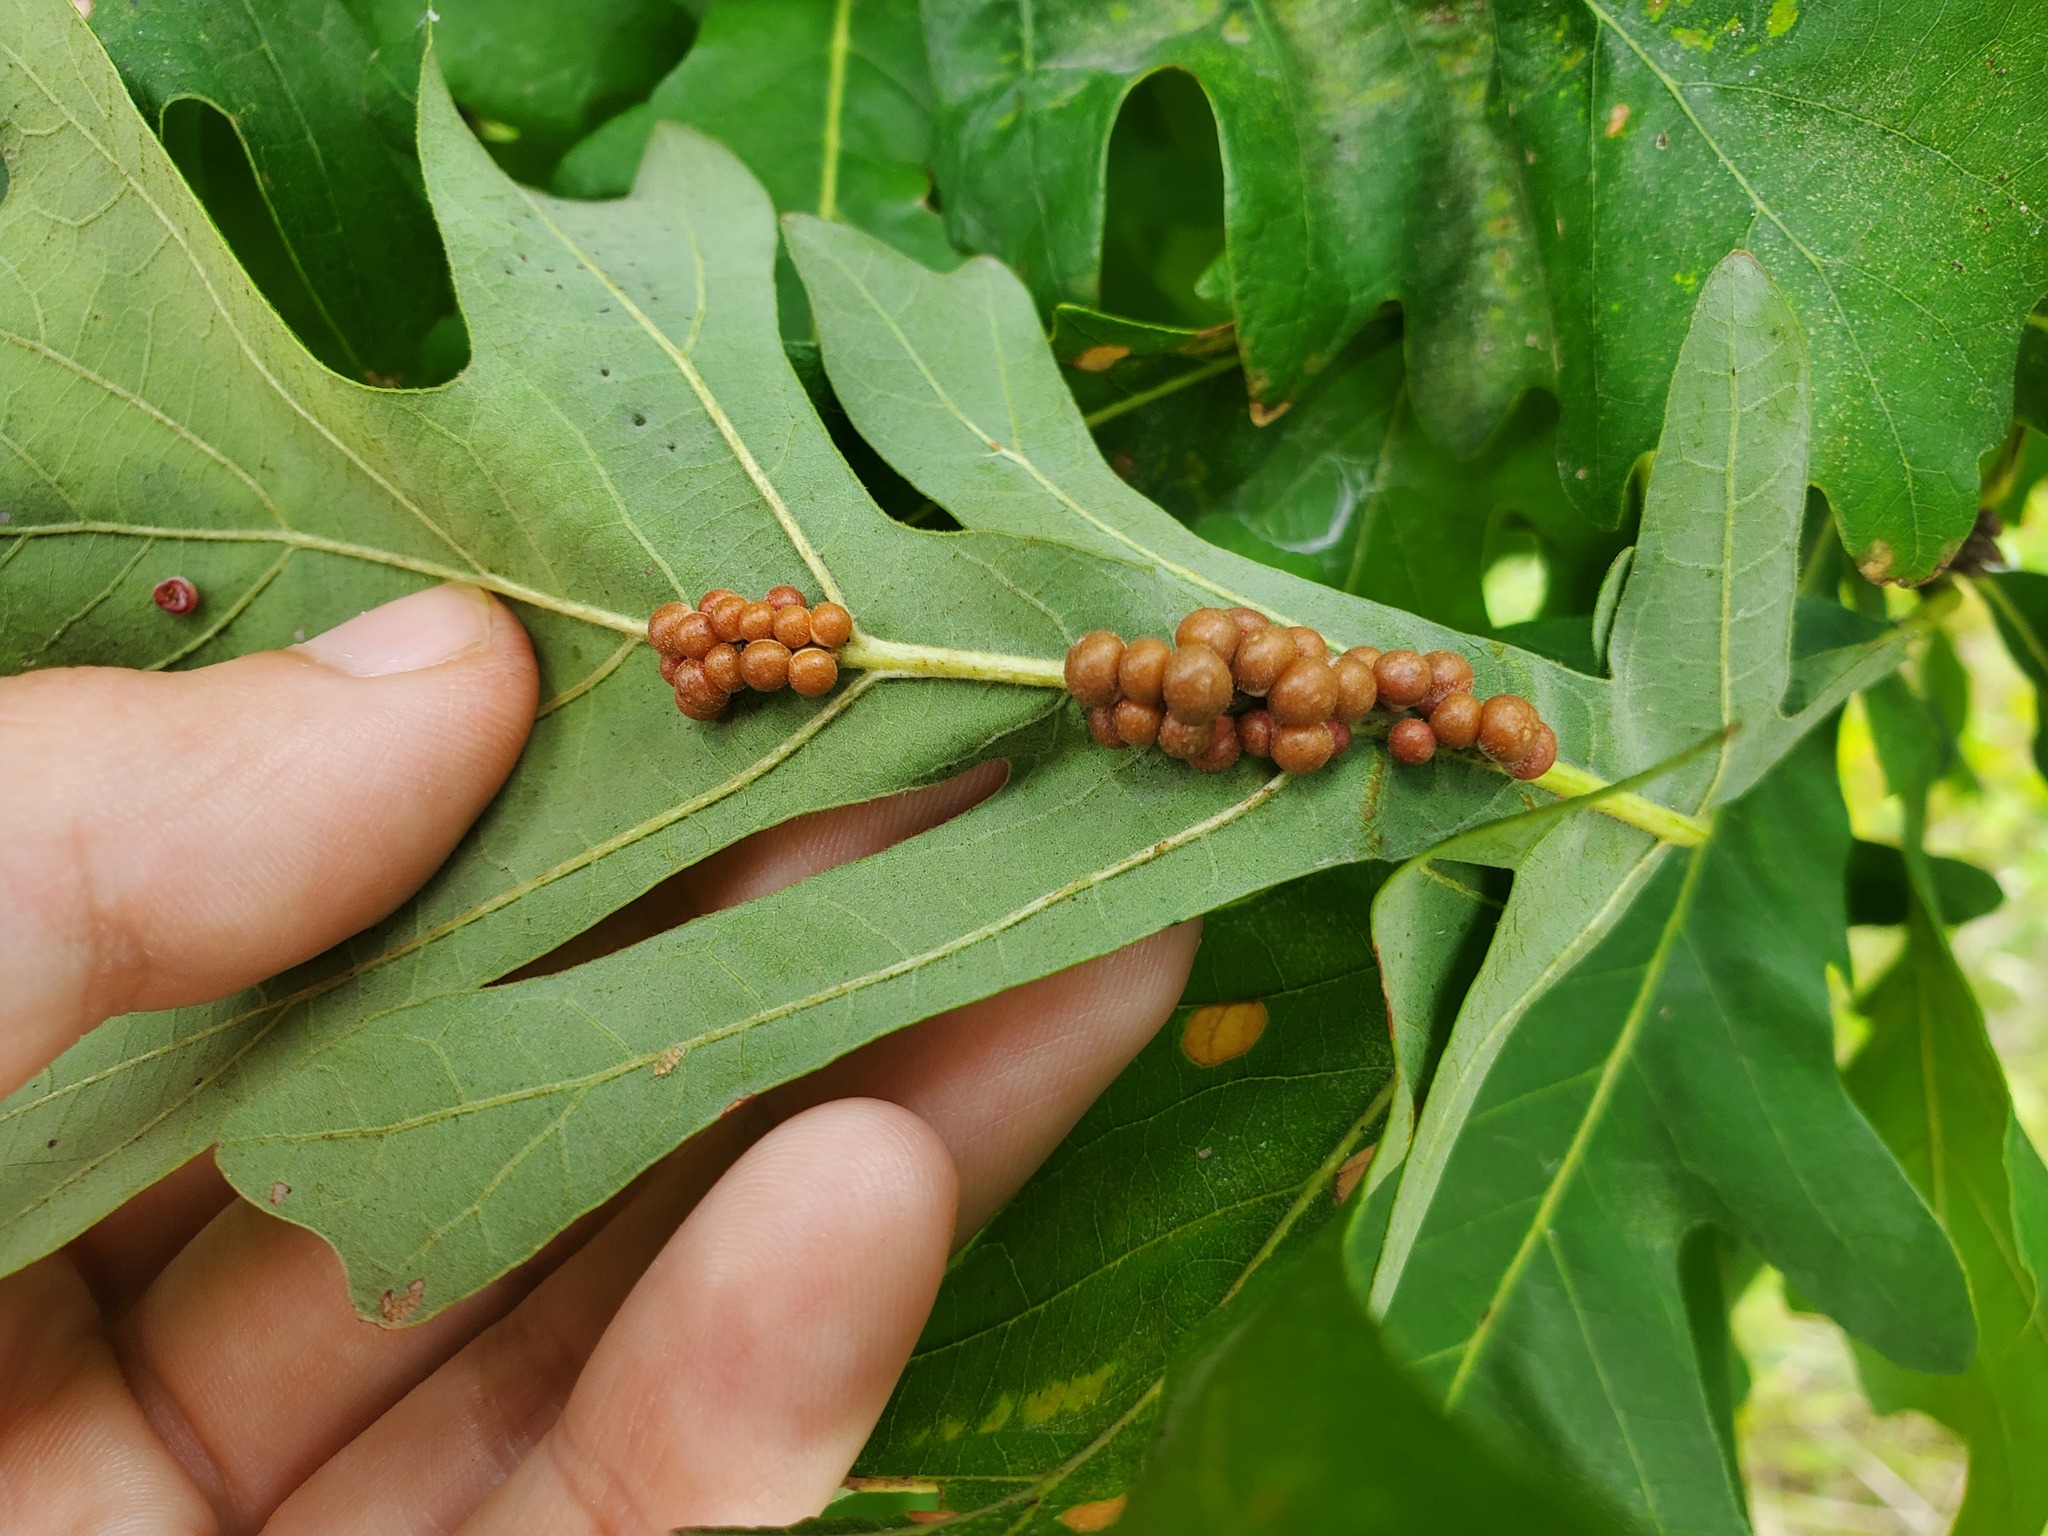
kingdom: Animalia
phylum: Arthropoda
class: Insecta
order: Hymenoptera
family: Cynipidae
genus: Andricus
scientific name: Andricus
